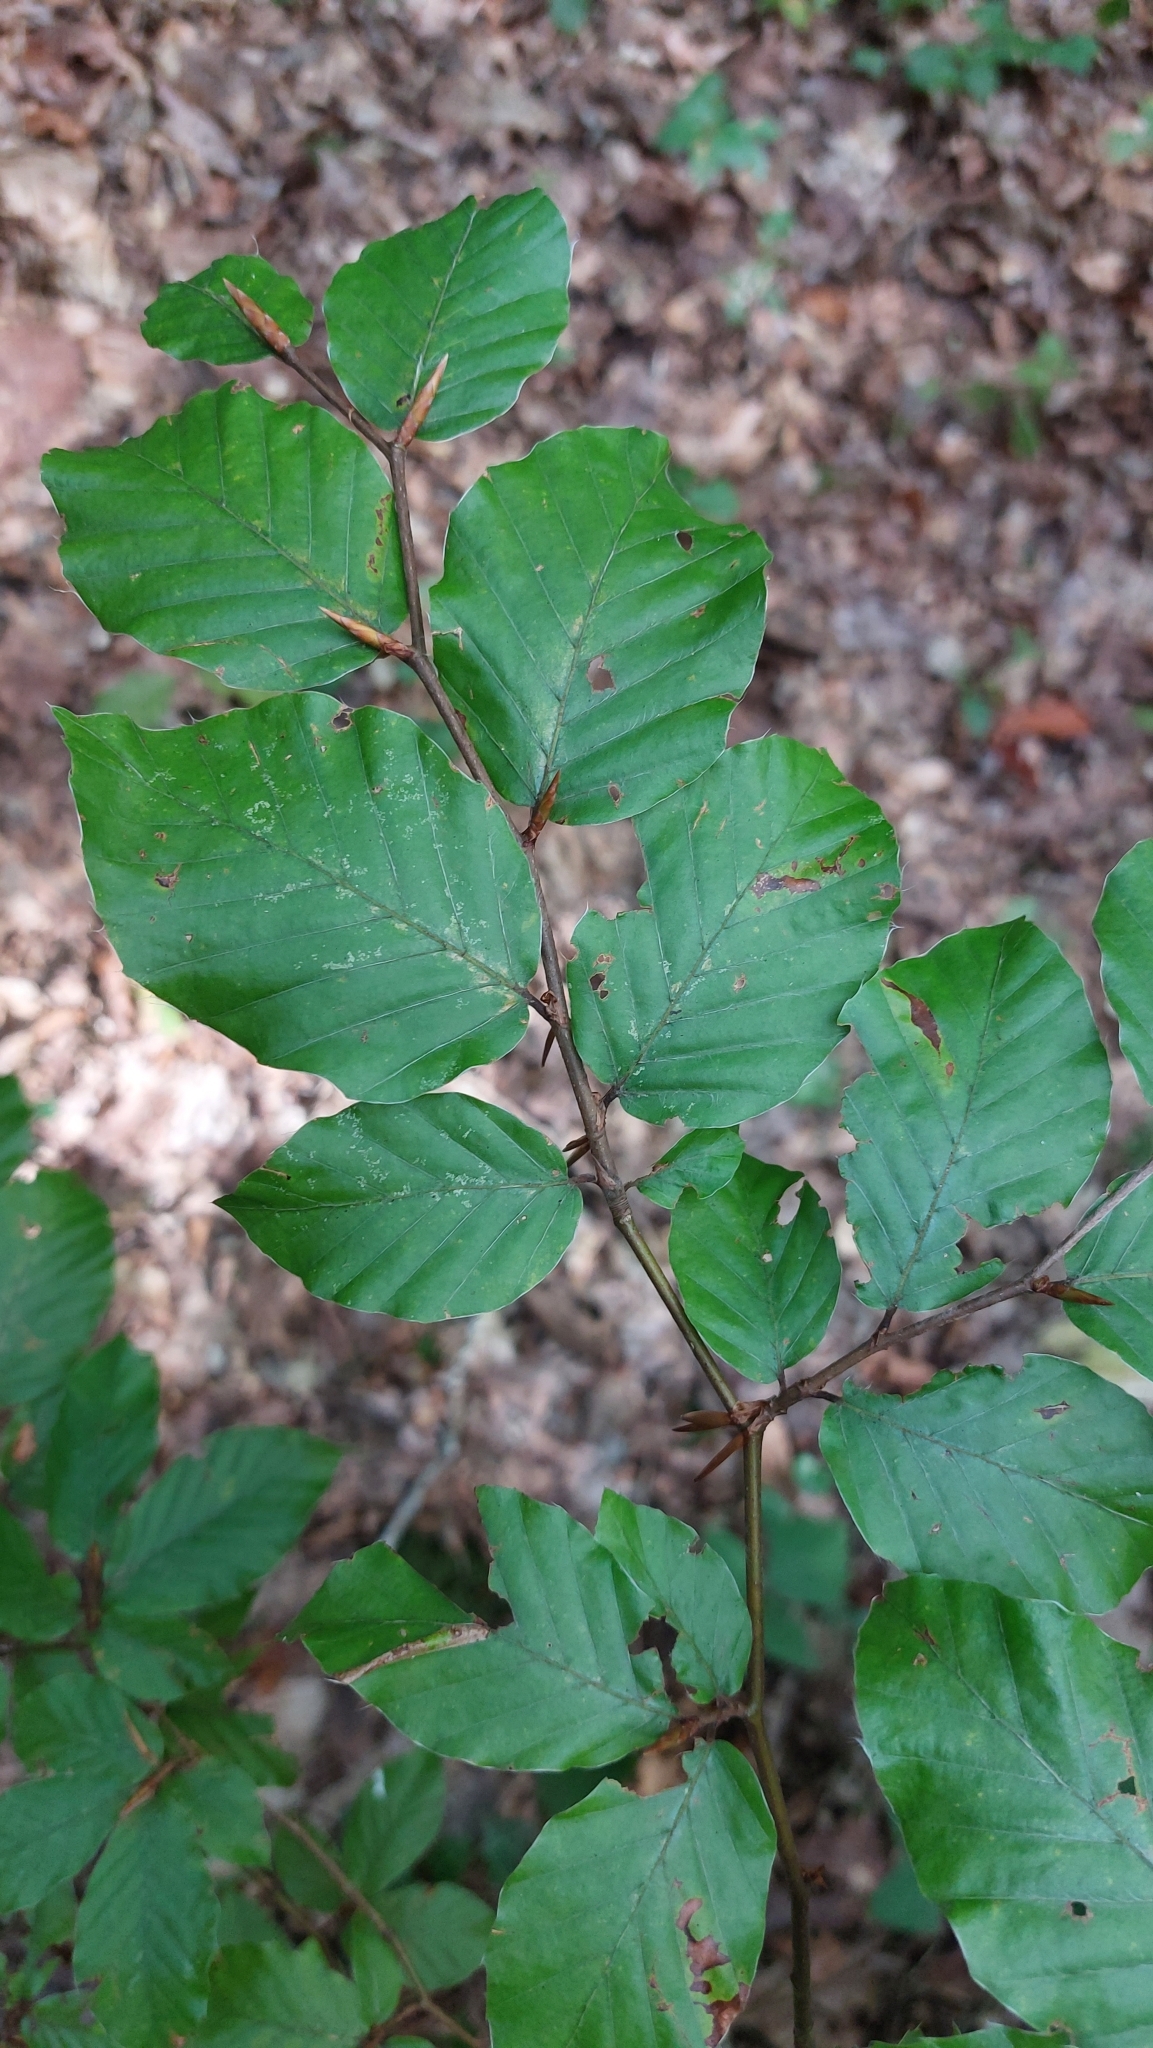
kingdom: Plantae
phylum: Tracheophyta
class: Magnoliopsida
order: Fagales
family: Fagaceae
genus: Fagus
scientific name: Fagus sylvatica
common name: Beech
